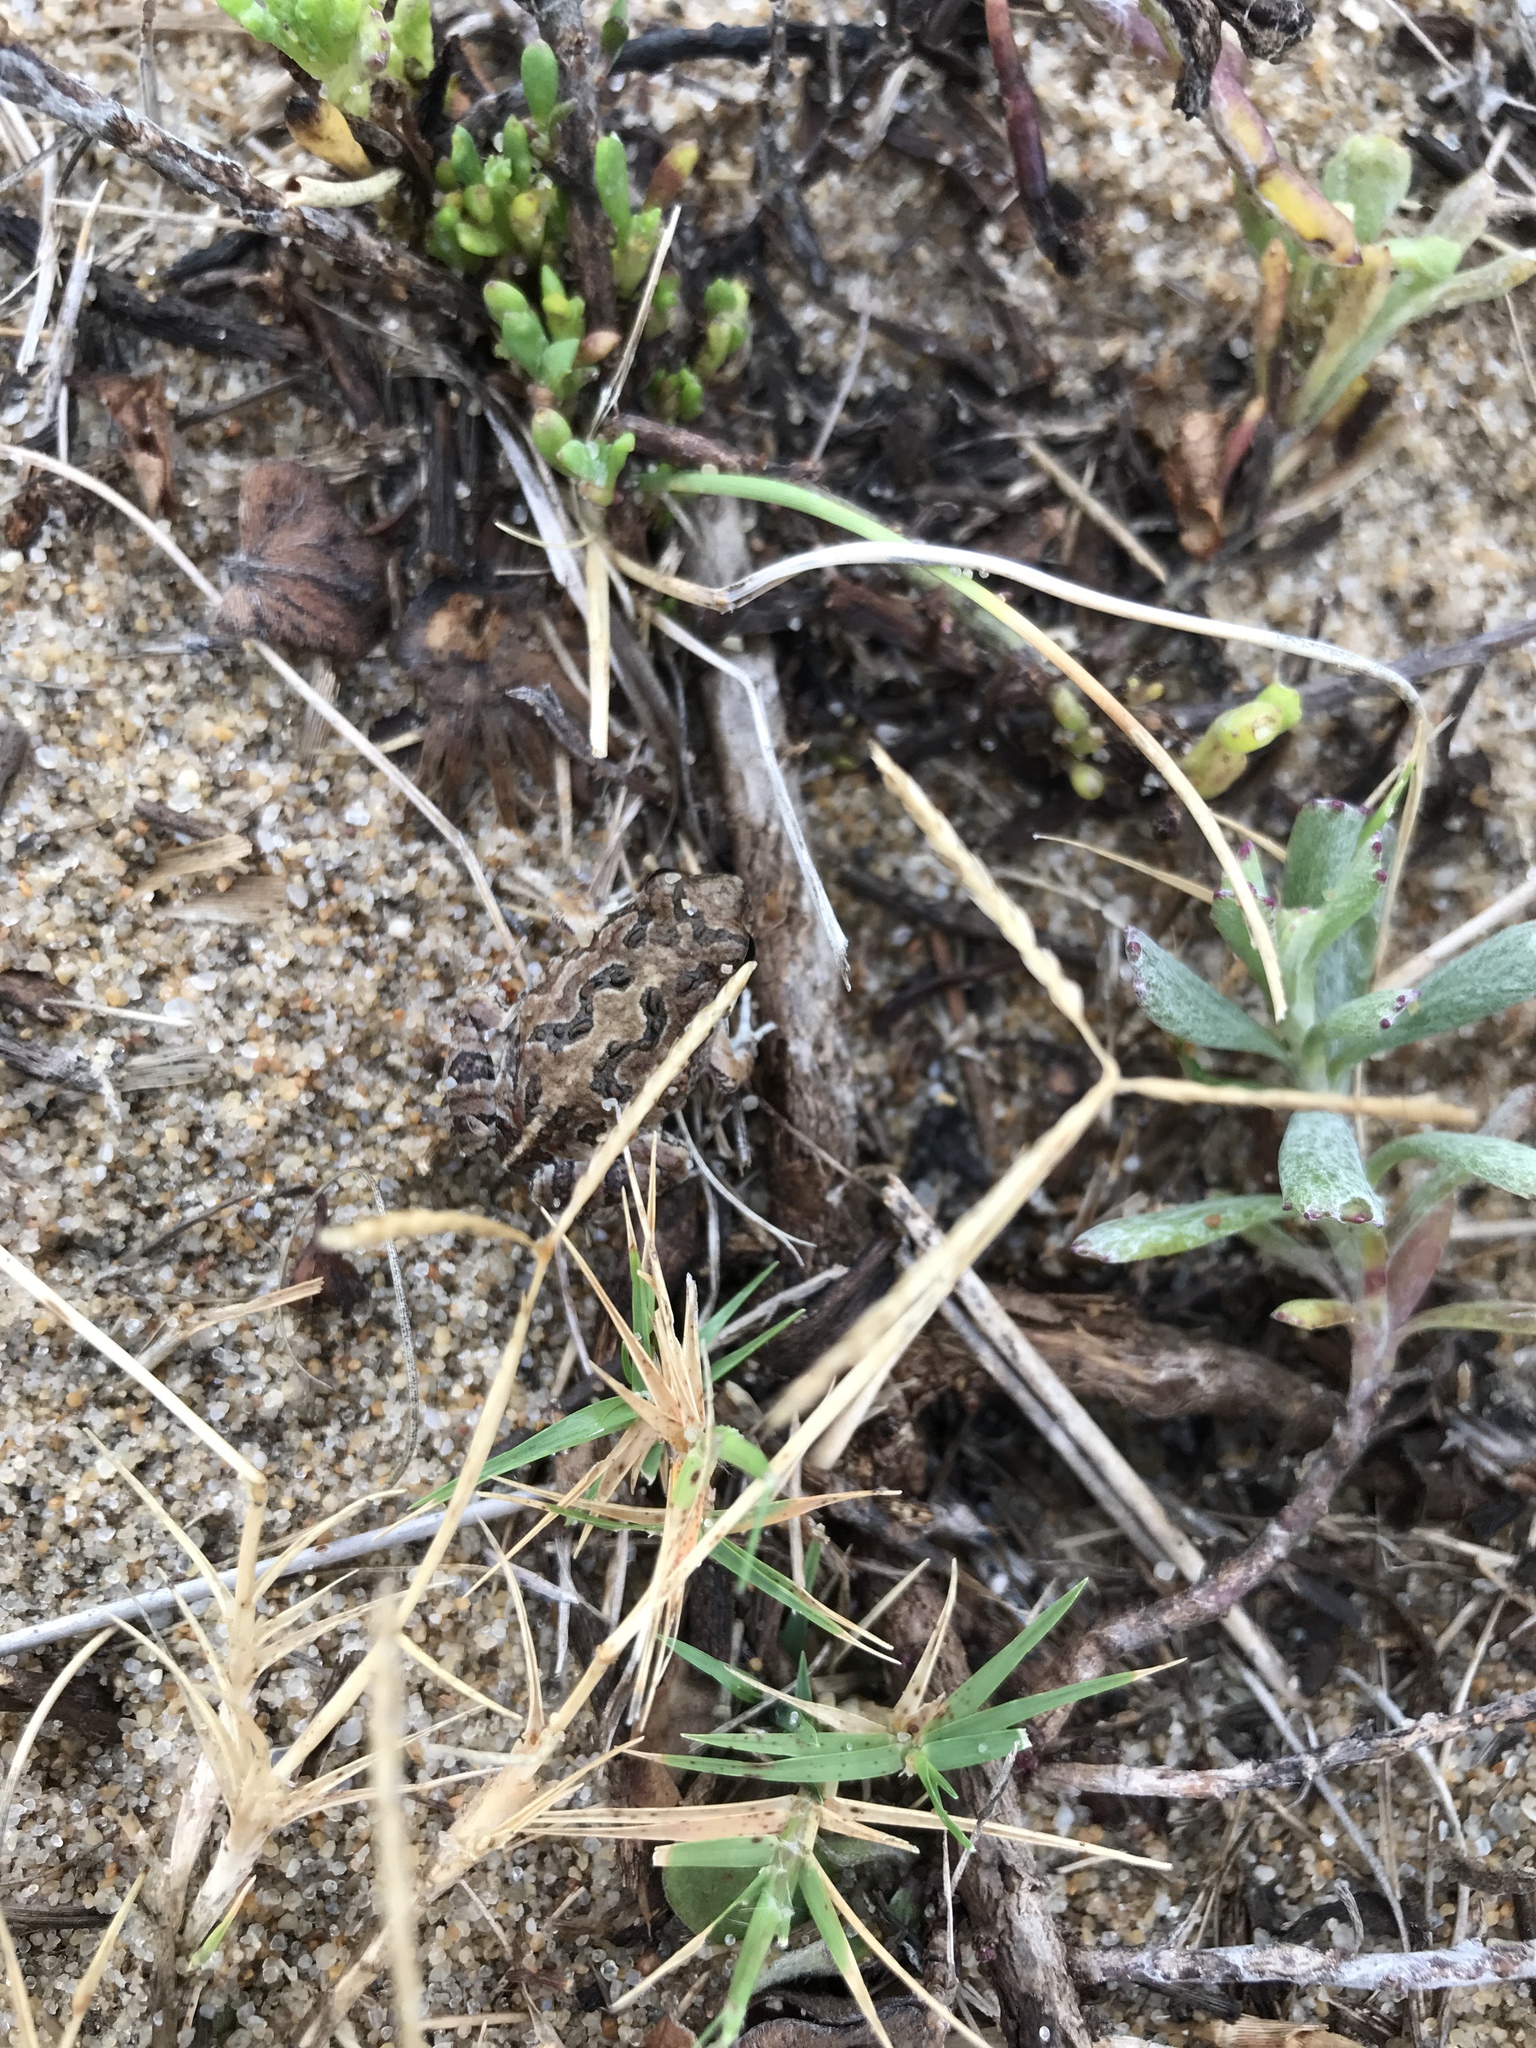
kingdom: Animalia
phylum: Chordata
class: Amphibia
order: Anura
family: Leptodactylidae
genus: Physalaemus
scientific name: Physalaemus biligonigerus
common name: Weeping frog
